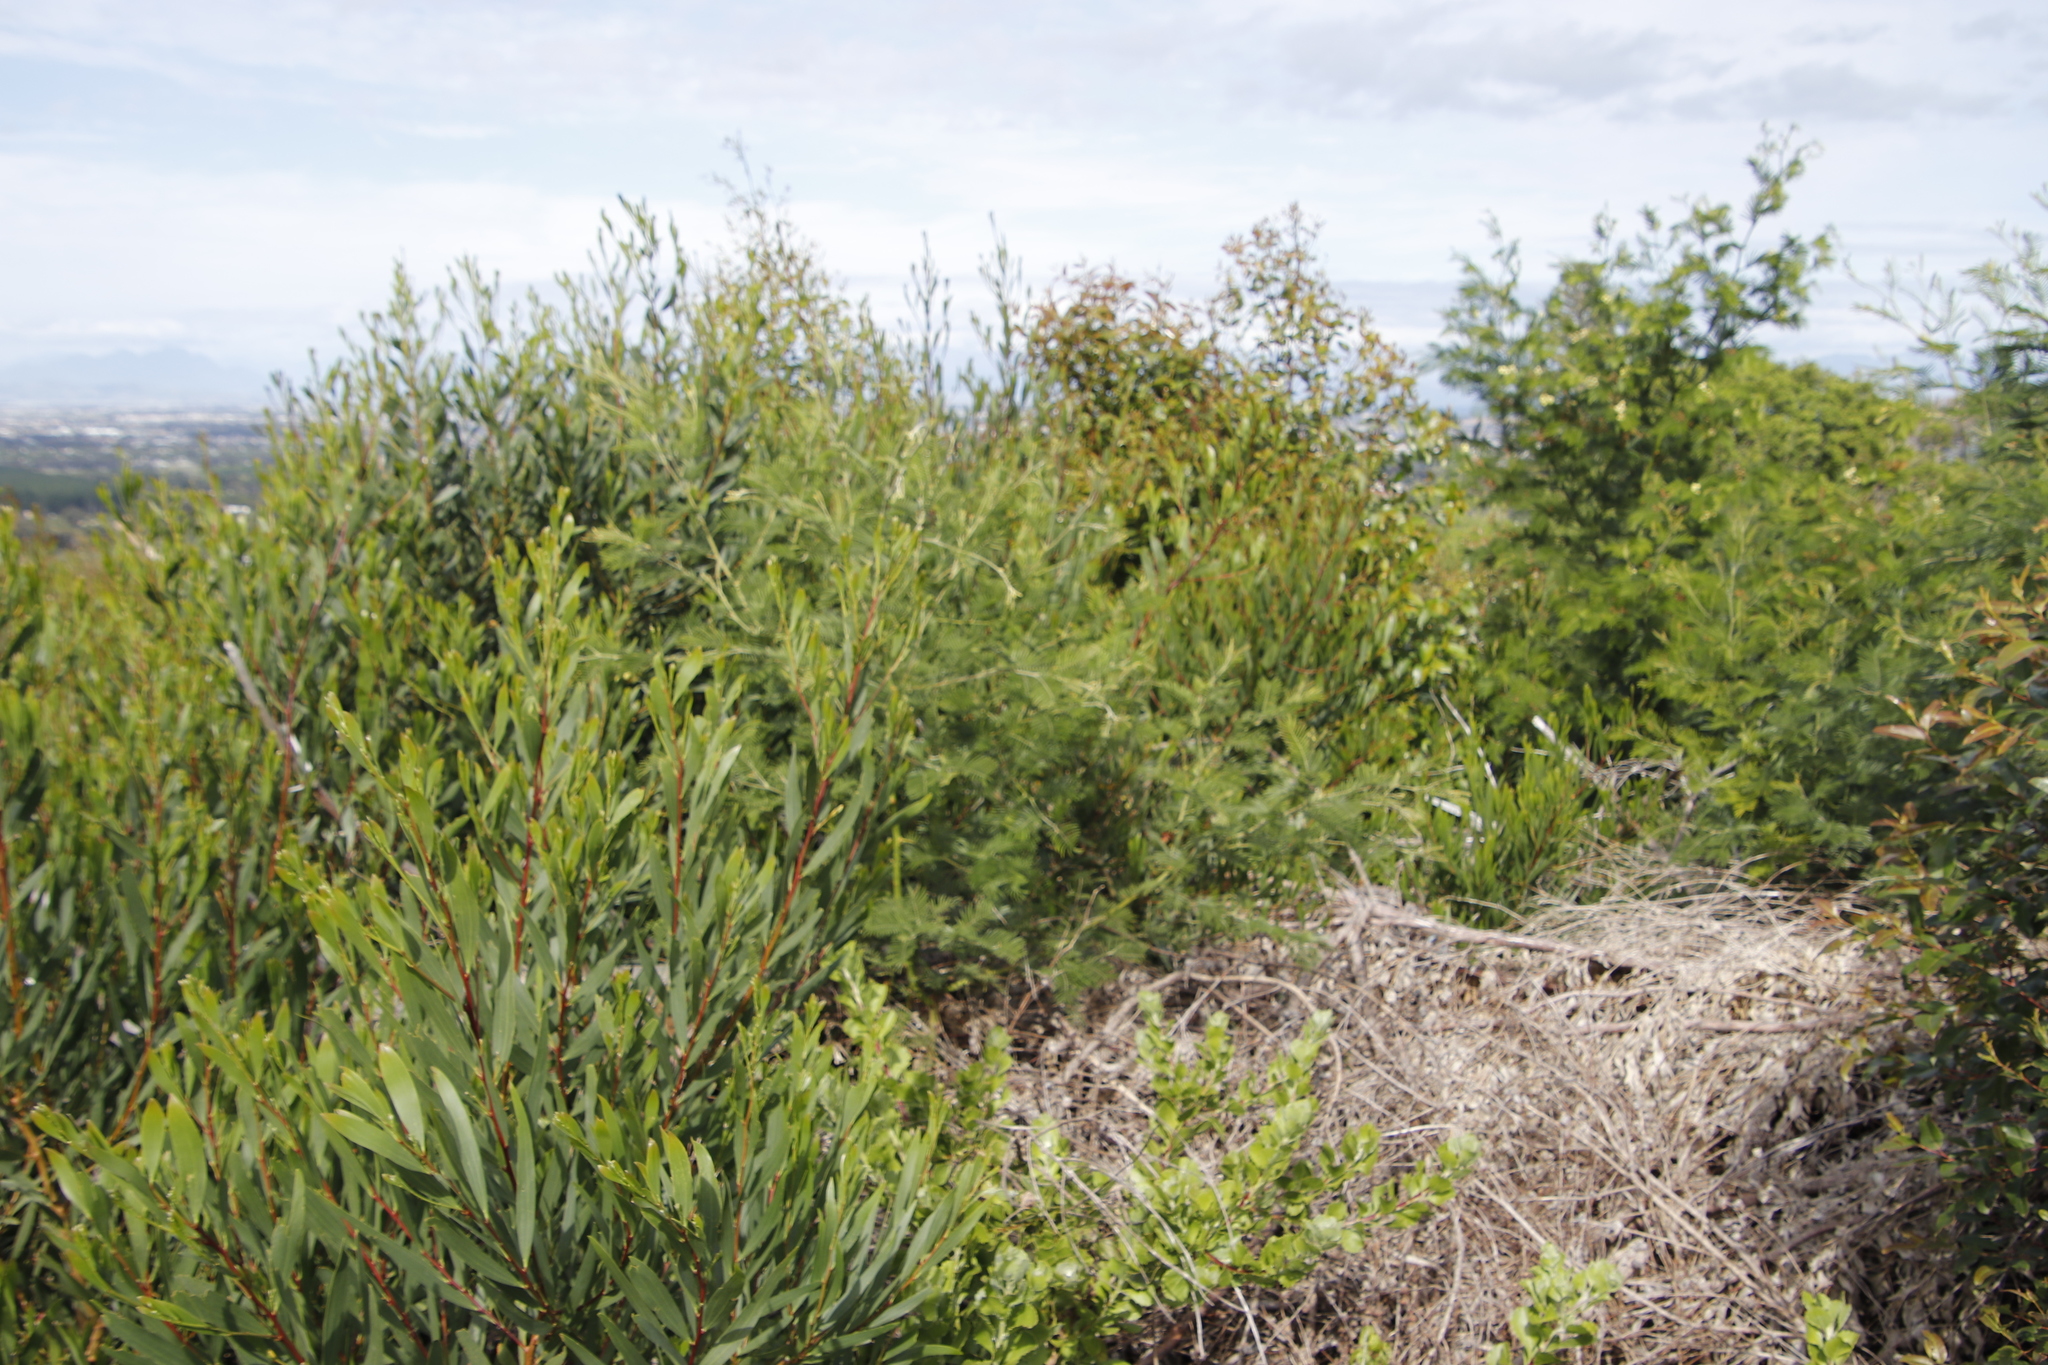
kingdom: Plantae
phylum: Tracheophyta
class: Magnoliopsida
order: Fabales
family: Fabaceae
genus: Acacia
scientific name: Acacia mearnsii
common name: Black wattle
